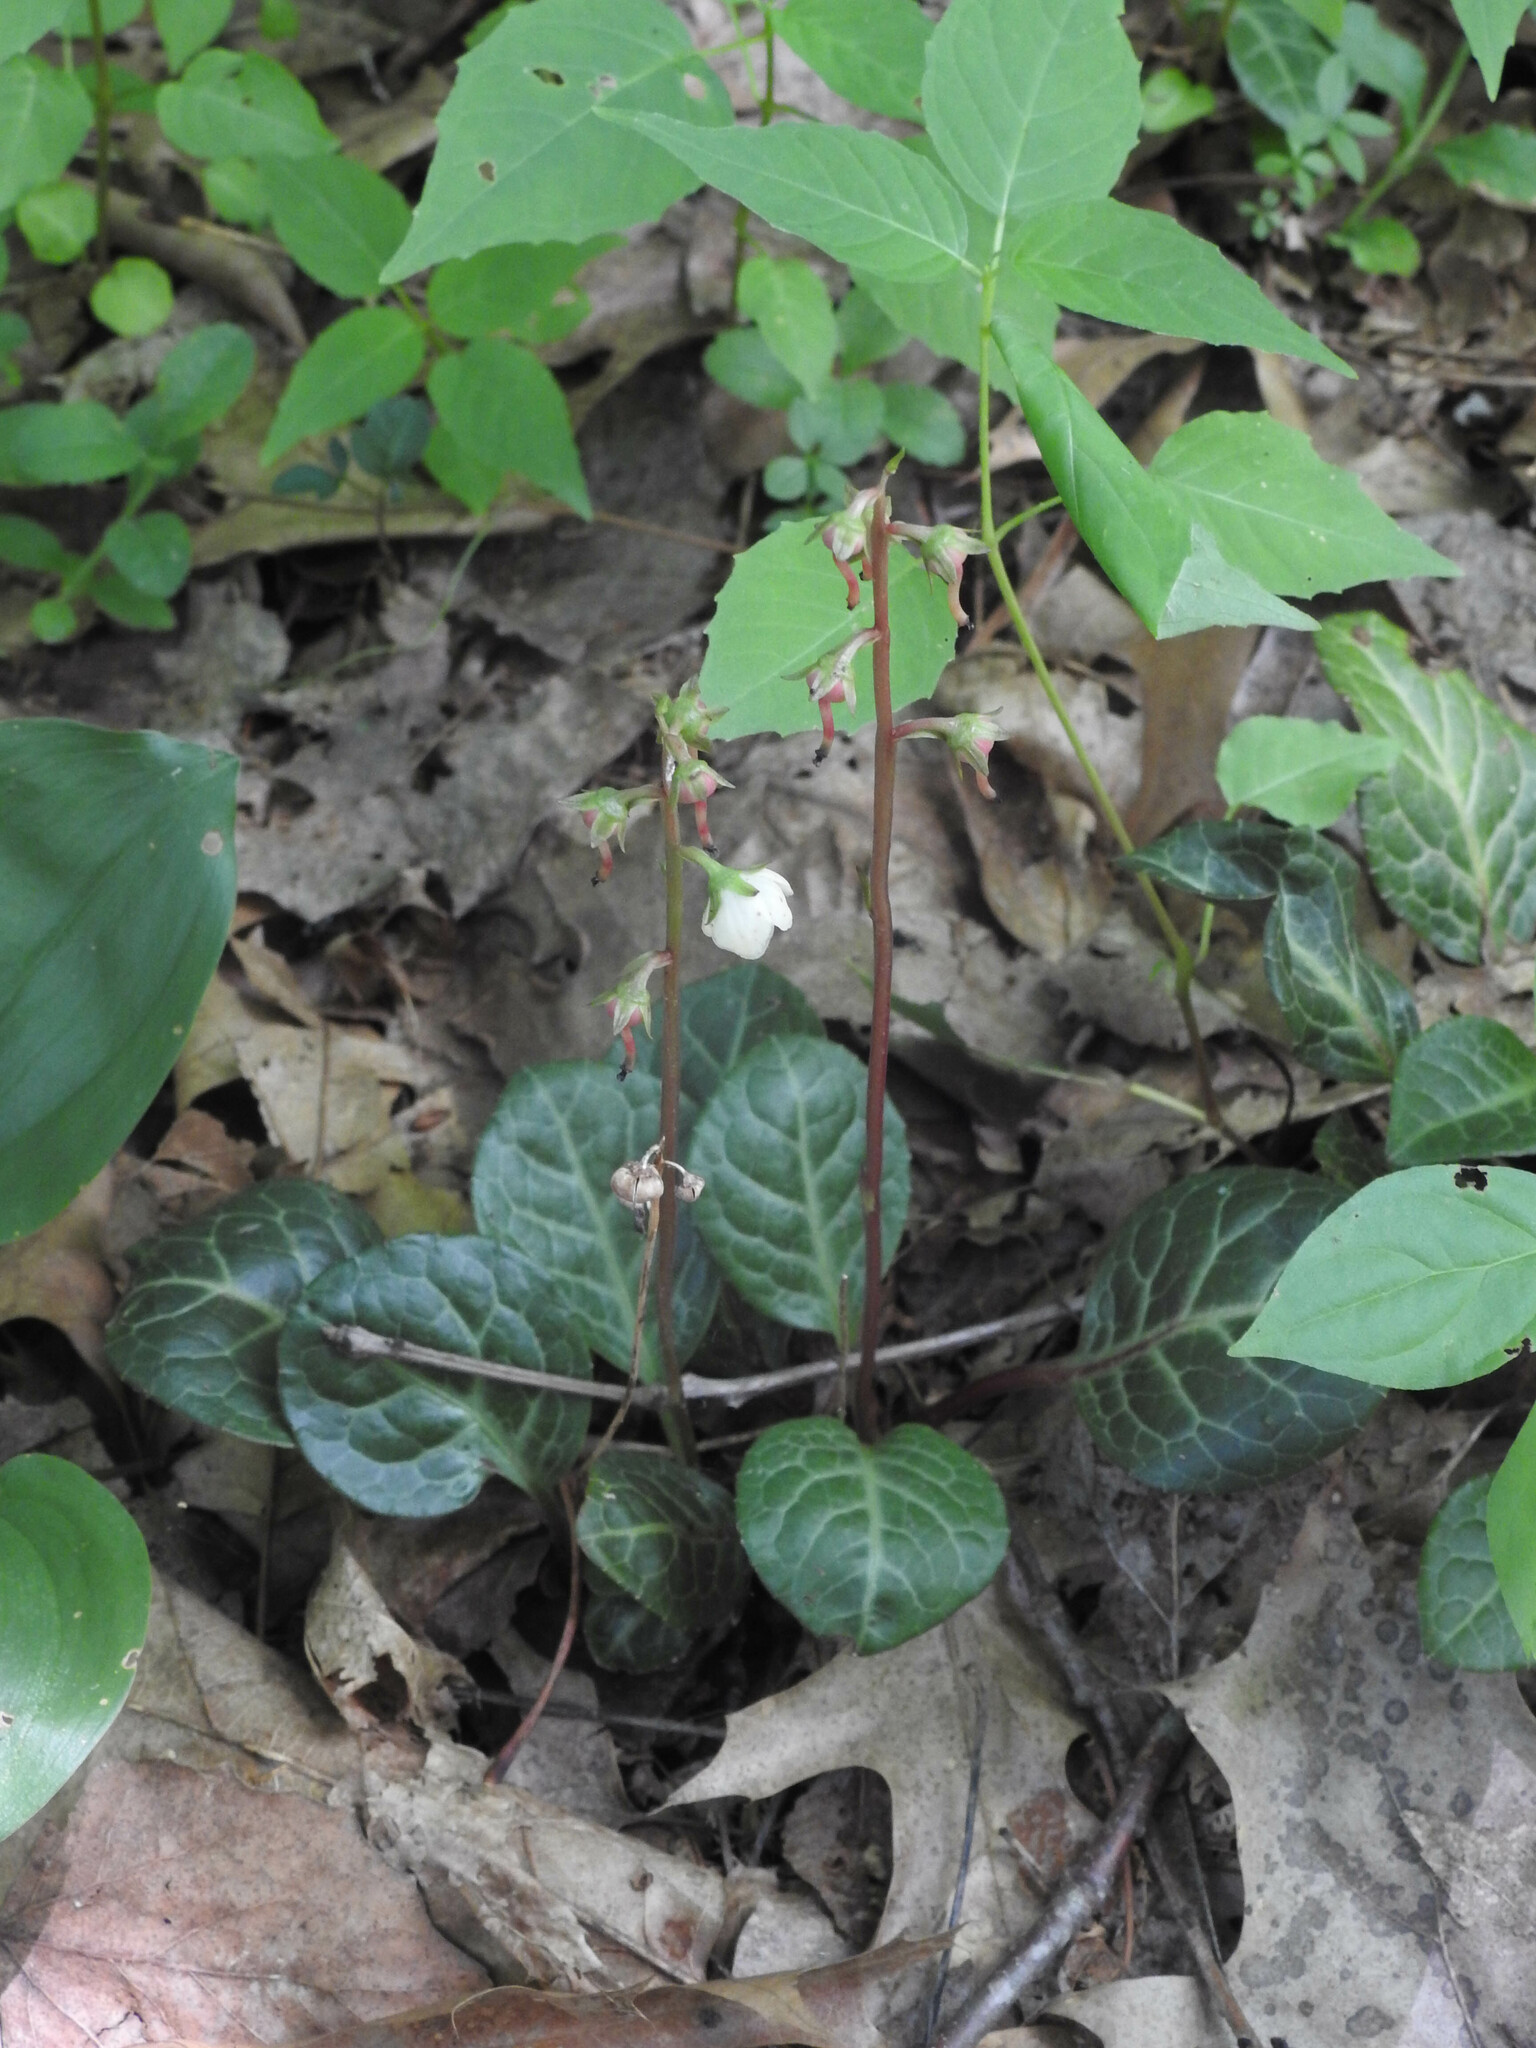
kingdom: Plantae
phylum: Tracheophyta
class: Magnoliopsida
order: Ericales
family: Ericaceae
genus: Pyrola
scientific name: Pyrola americana
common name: American wintergreen
